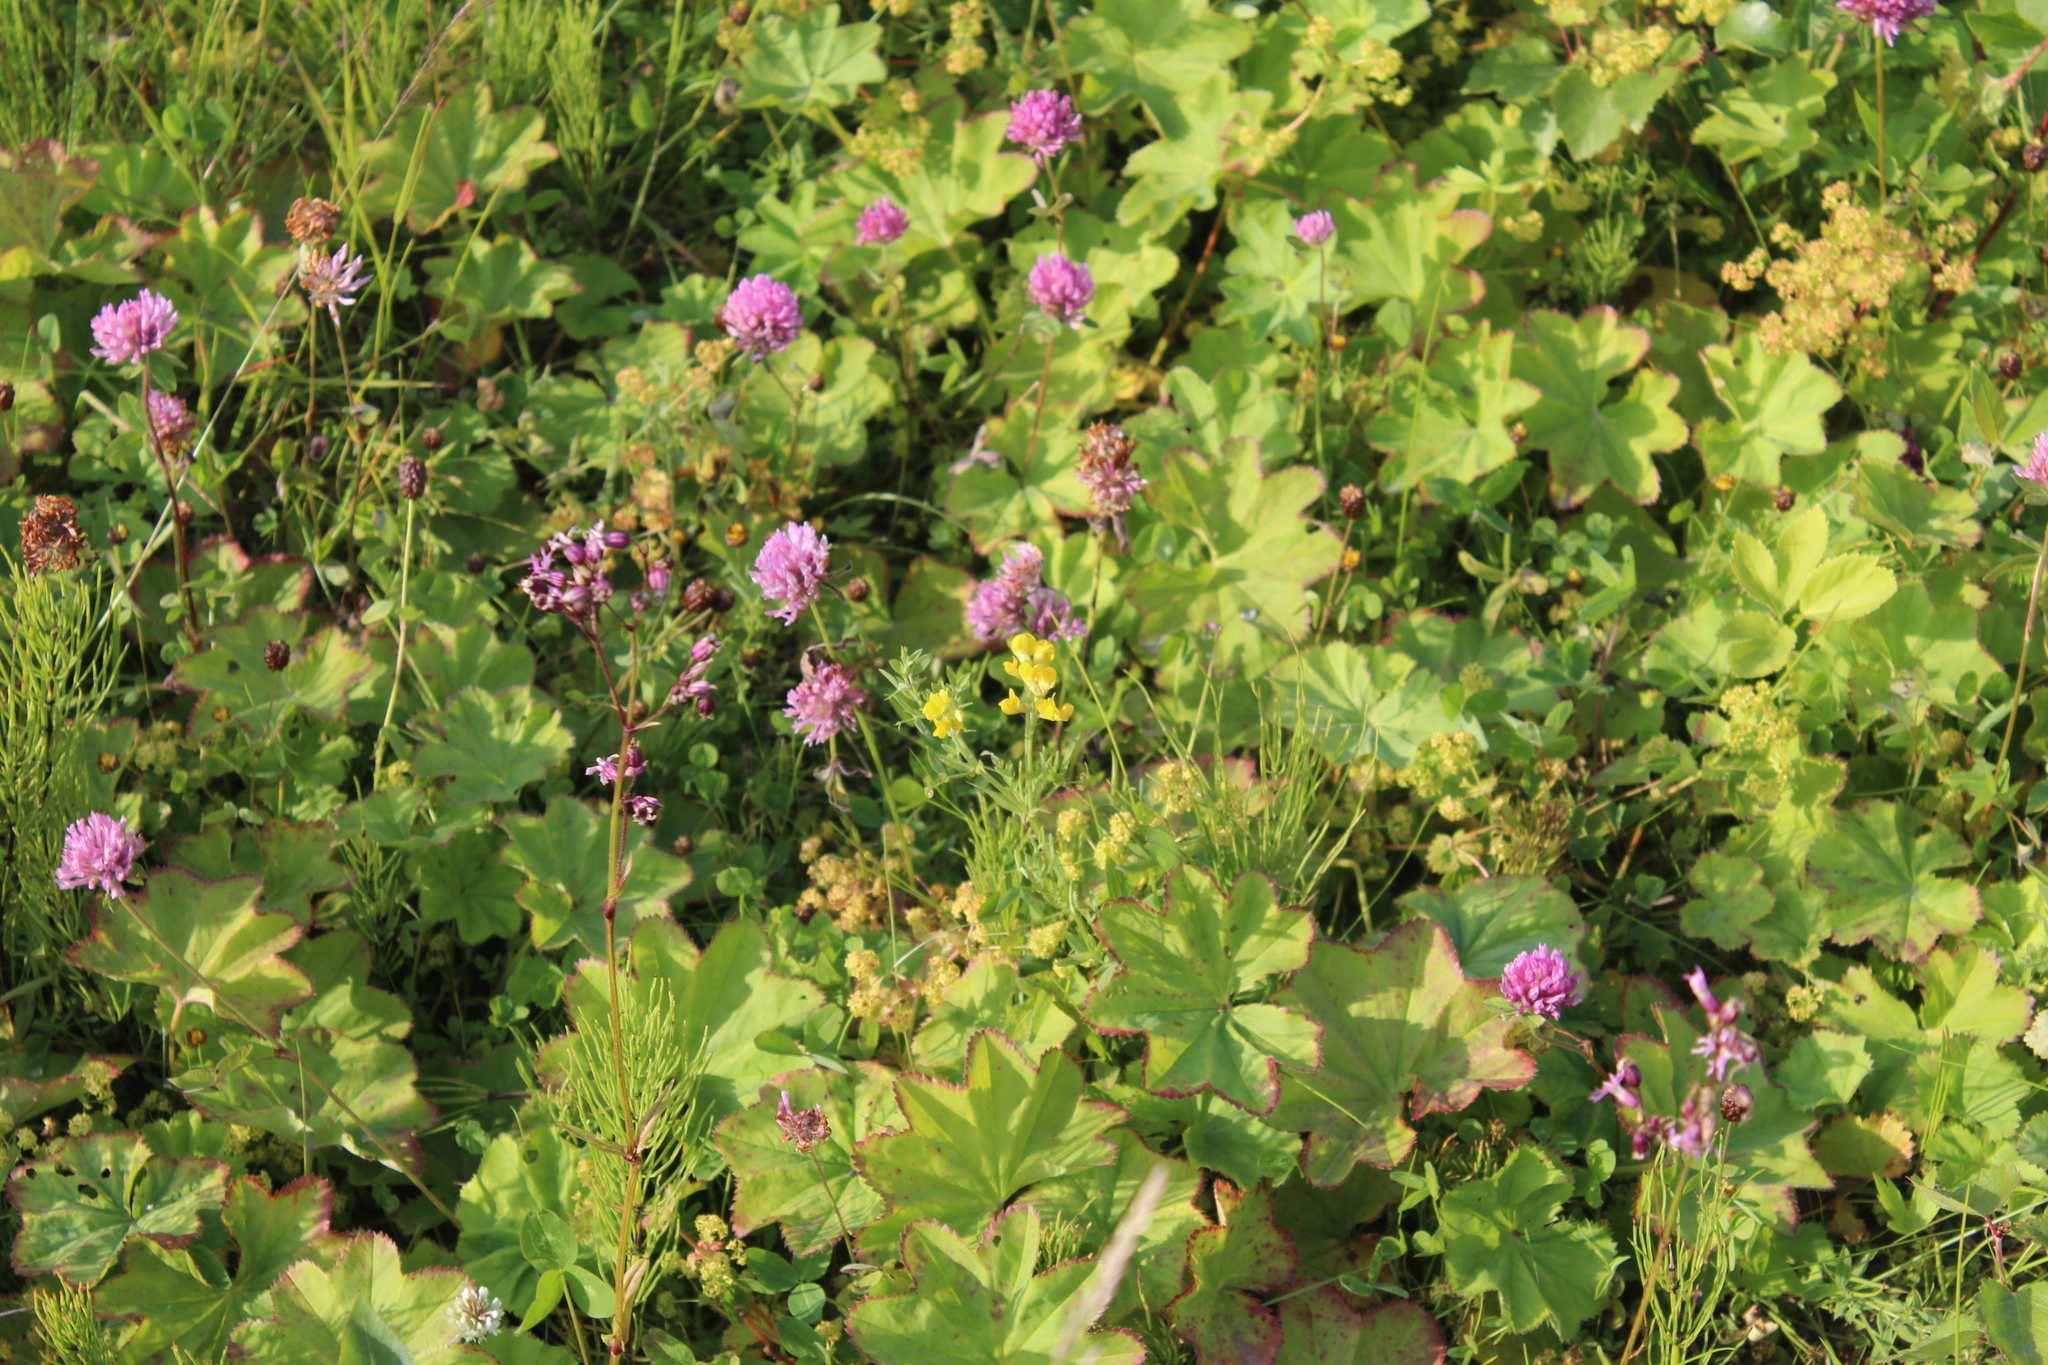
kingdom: Plantae
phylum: Tracheophyta
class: Magnoliopsida
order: Rosales
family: Rosaceae
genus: Alchemilla
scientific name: Alchemilla glomerulans
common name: Clustered lady's mantle
